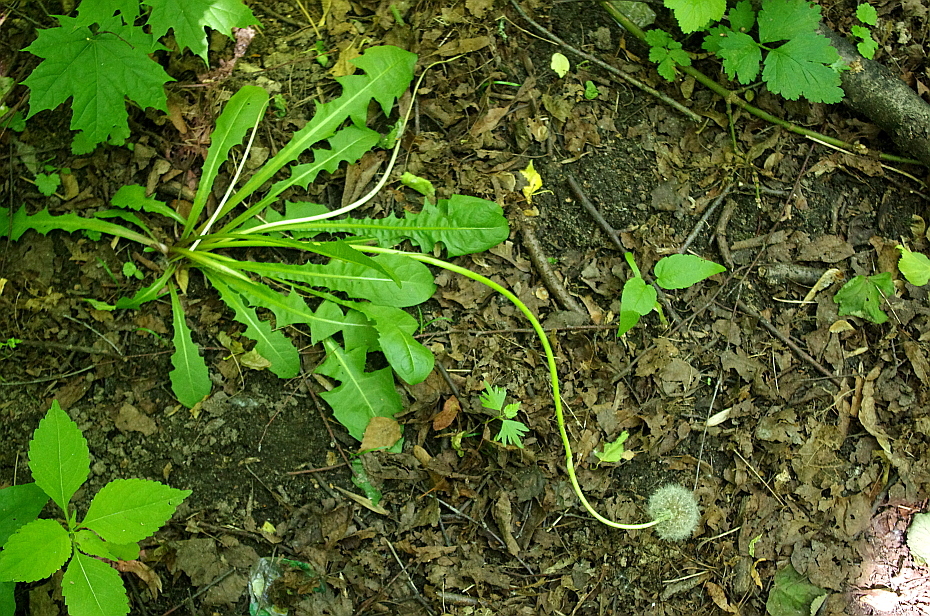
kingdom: Plantae
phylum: Tracheophyta
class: Magnoliopsida
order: Asterales
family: Asteraceae
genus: Taraxacum
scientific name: Taraxacum officinale
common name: Common dandelion
